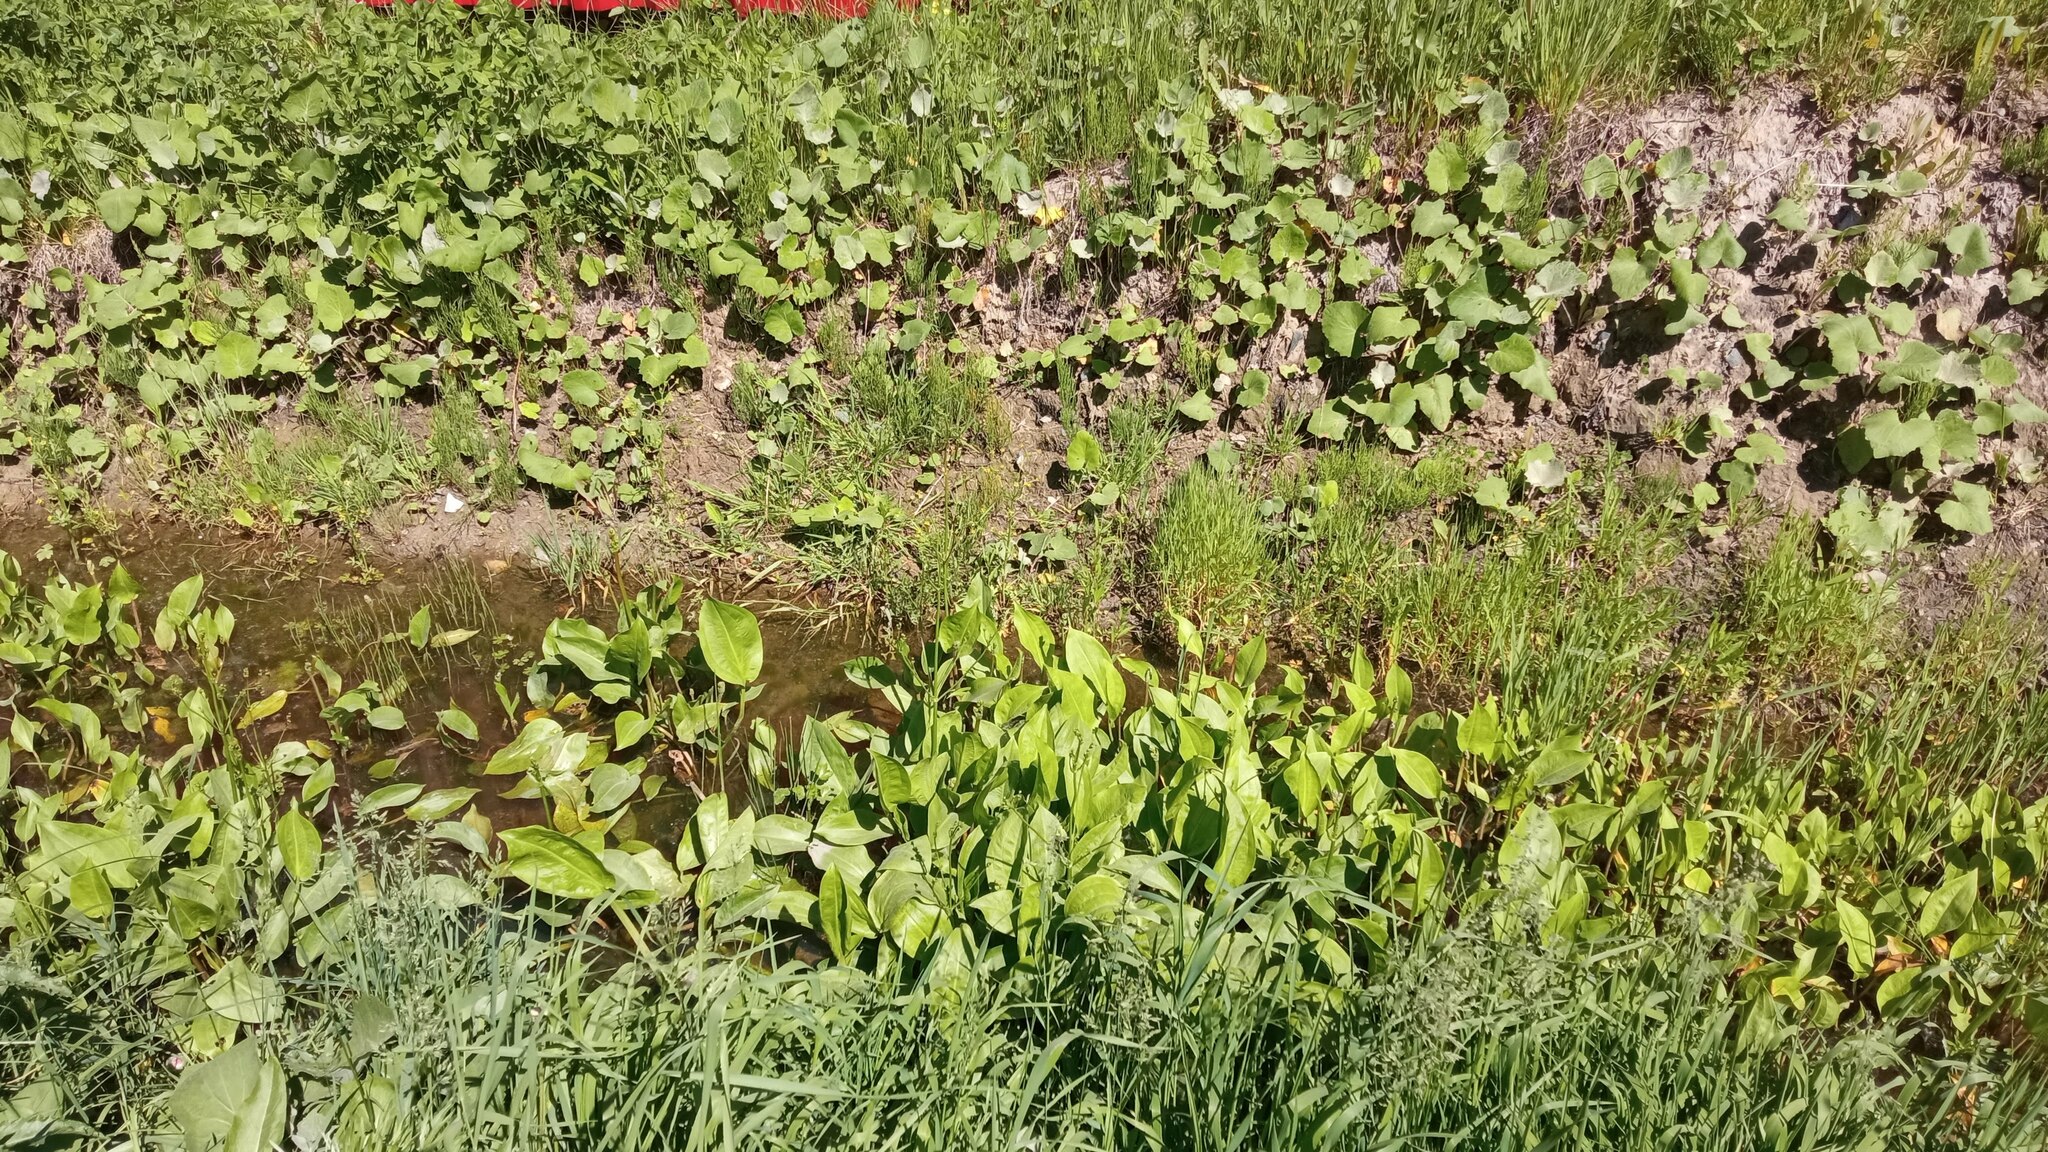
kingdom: Plantae
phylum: Tracheophyta
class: Liliopsida
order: Alismatales
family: Alismataceae
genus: Alisma
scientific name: Alisma plantago-aquatica
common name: Water-plantain
